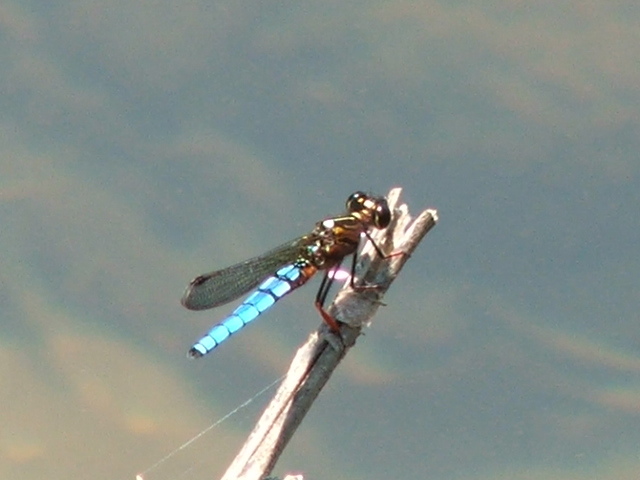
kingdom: Animalia
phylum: Arthropoda
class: Insecta
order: Odonata
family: Chlorocyphidae
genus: Platycypha
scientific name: Platycypha caligata
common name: Dancing jewel
